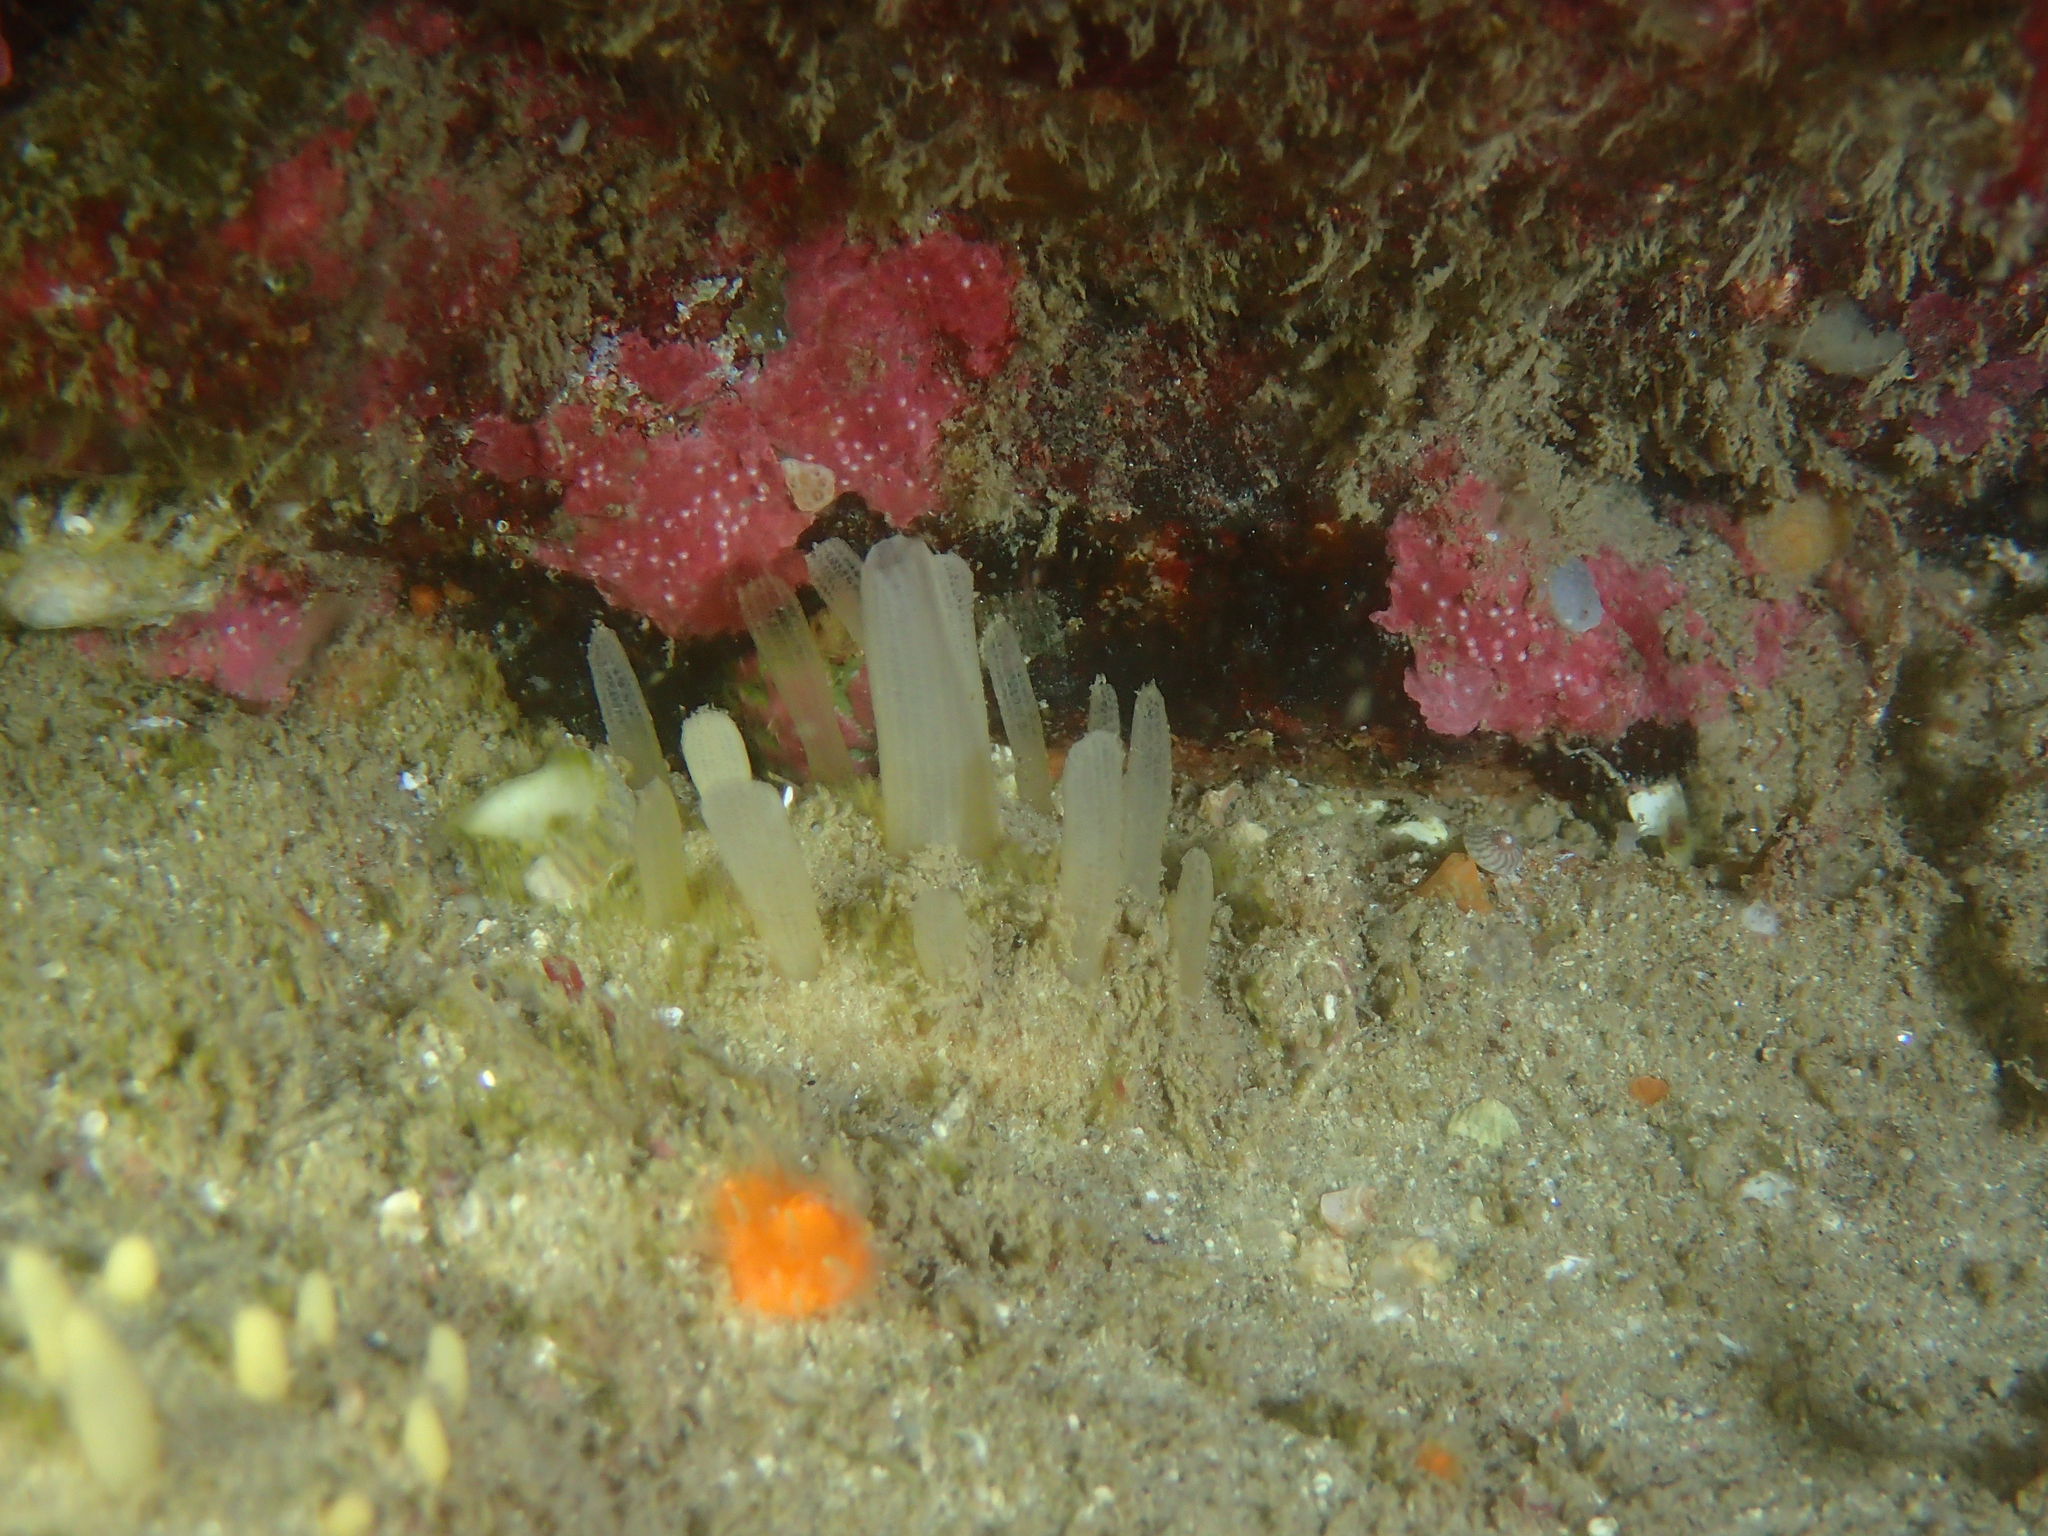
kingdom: Animalia
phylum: Porifera
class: Demospongiae
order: Polymastiida
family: Polymastiidae
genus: Polymastia
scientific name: Polymastia penicillus
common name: Chimney sponge
